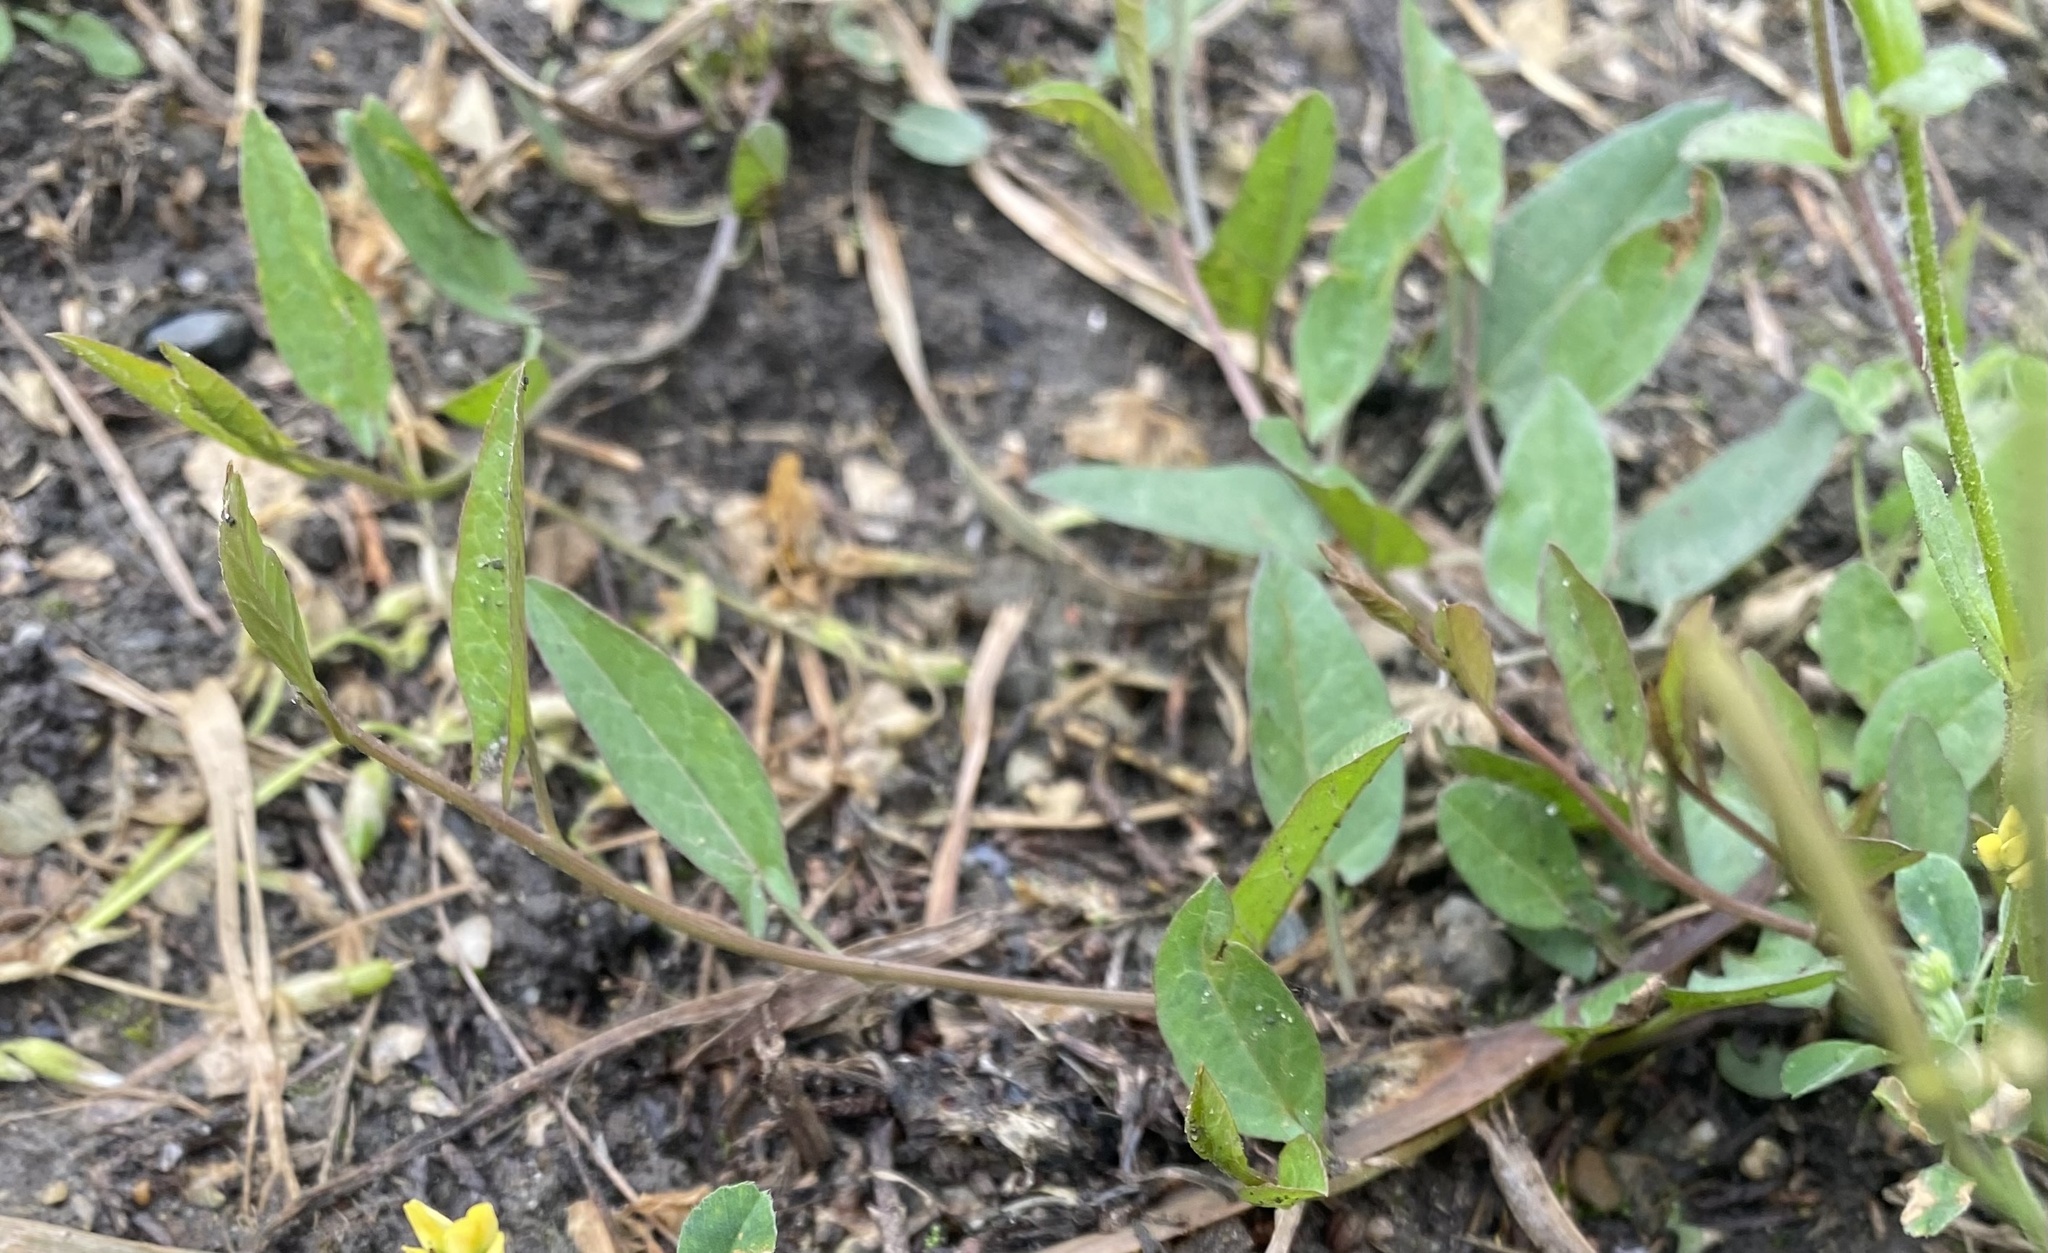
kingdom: Plantae
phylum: Tracheophyta
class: Magnoliopsida
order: Solanales
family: Convolvulaceae
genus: Convolvulus
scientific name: Convolvulus arvensis
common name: Field bindweed
